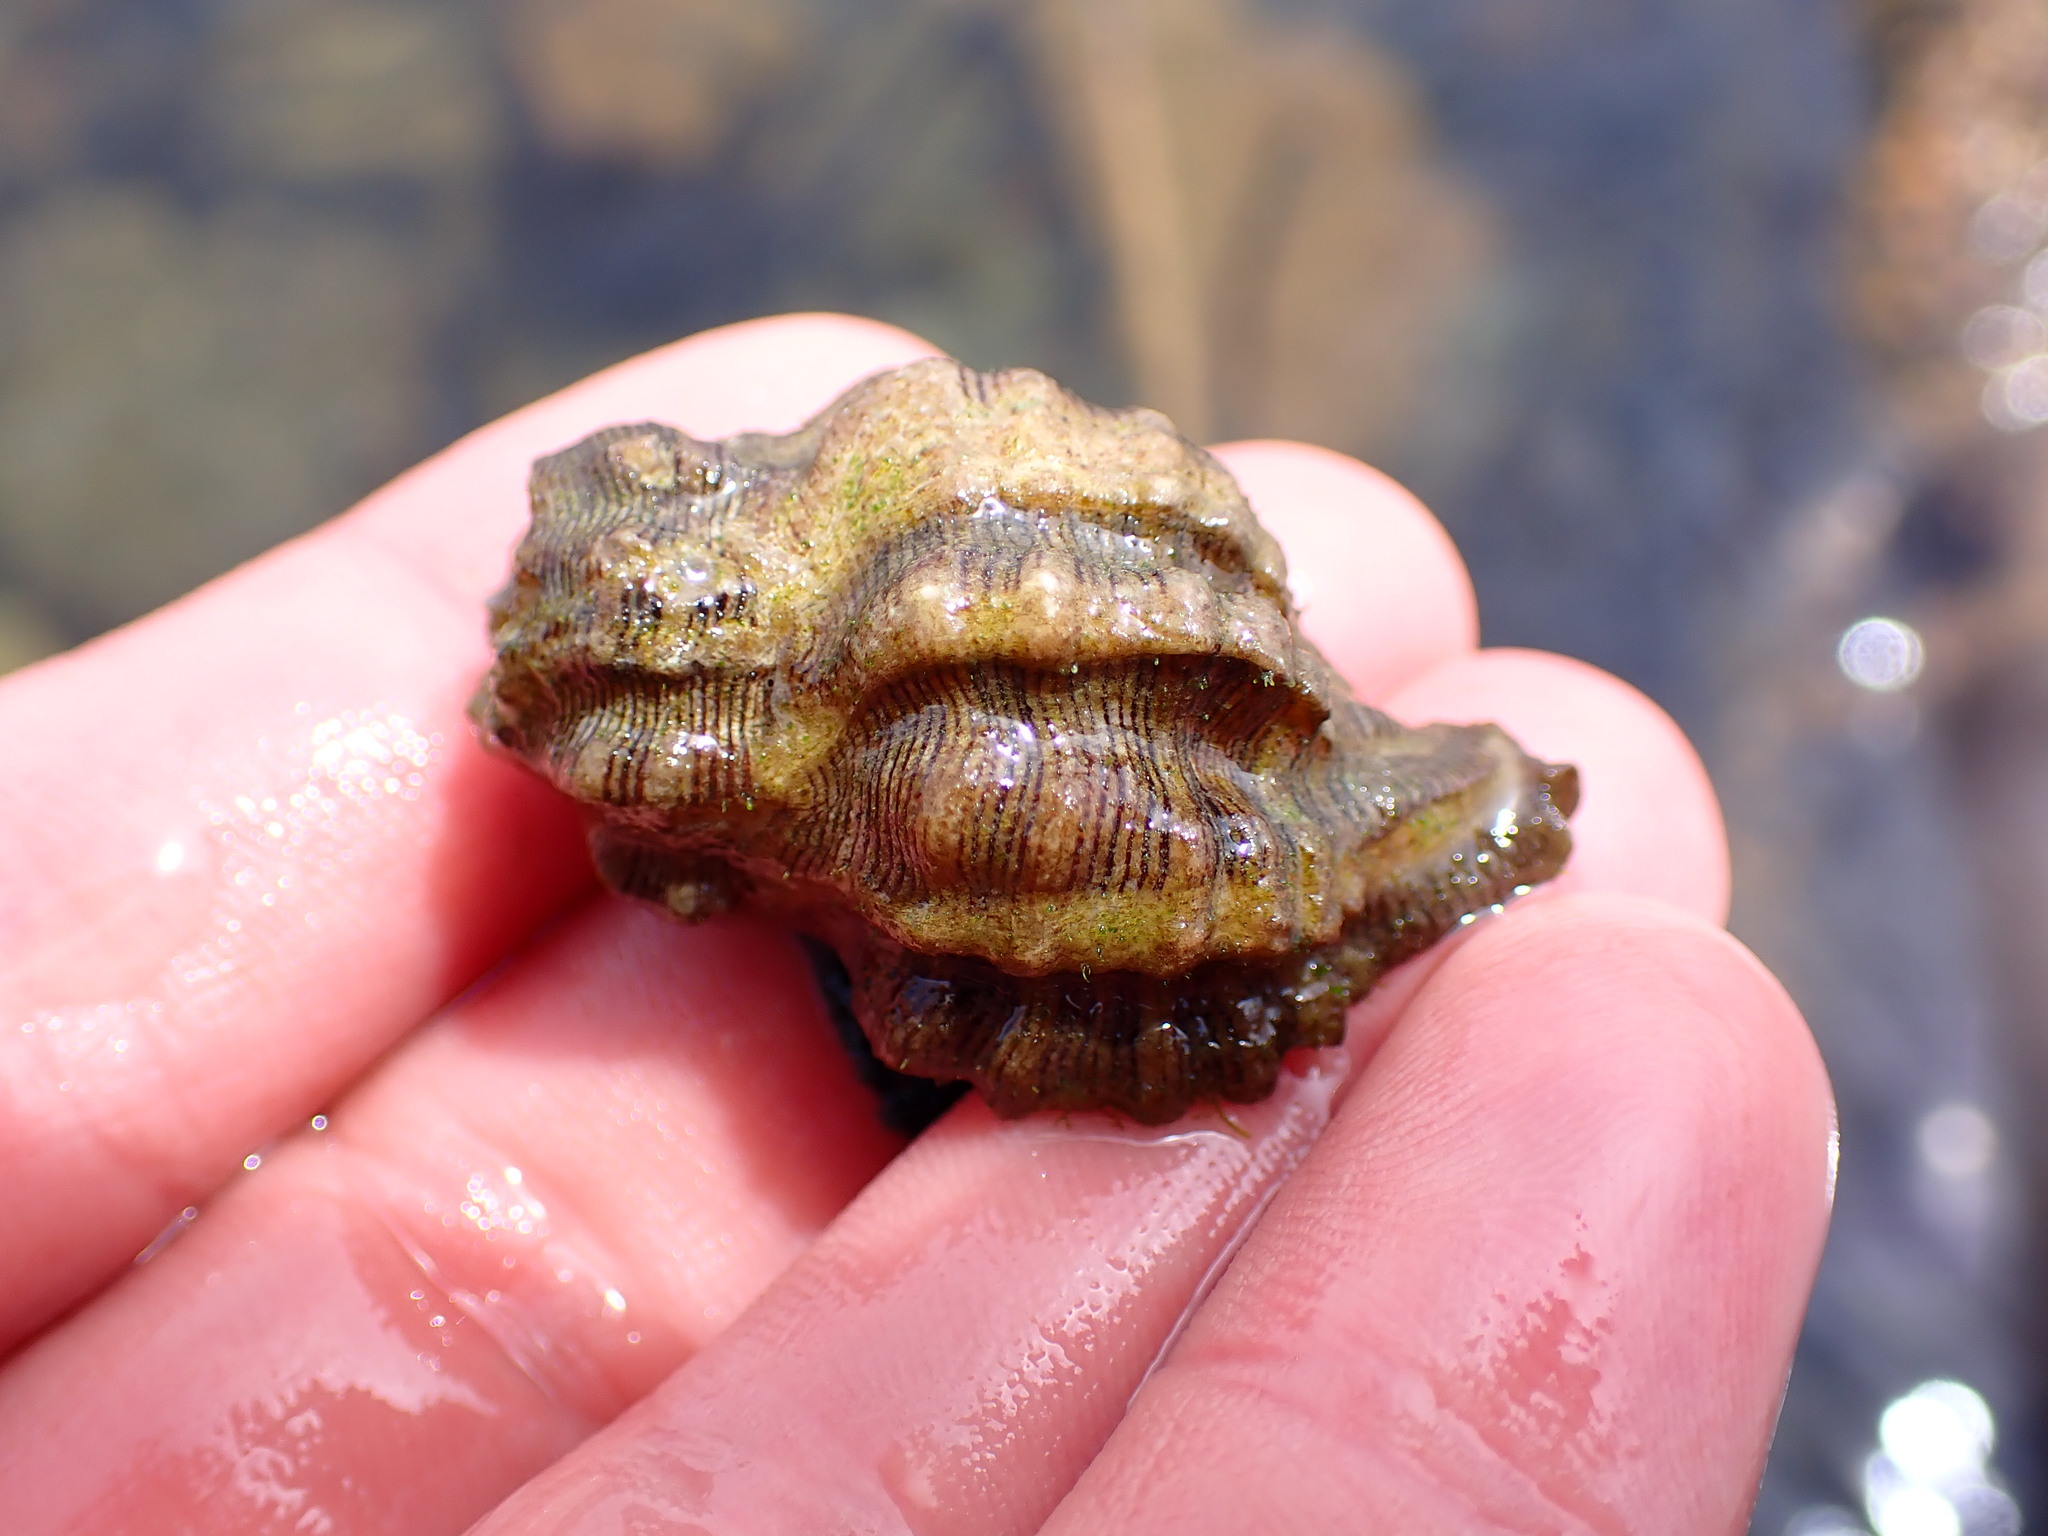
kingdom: Animalia
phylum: Mollusca
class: Gastropoda
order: Neogastropoda
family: Muricidae
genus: Roperia
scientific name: Roperia poulsoni
